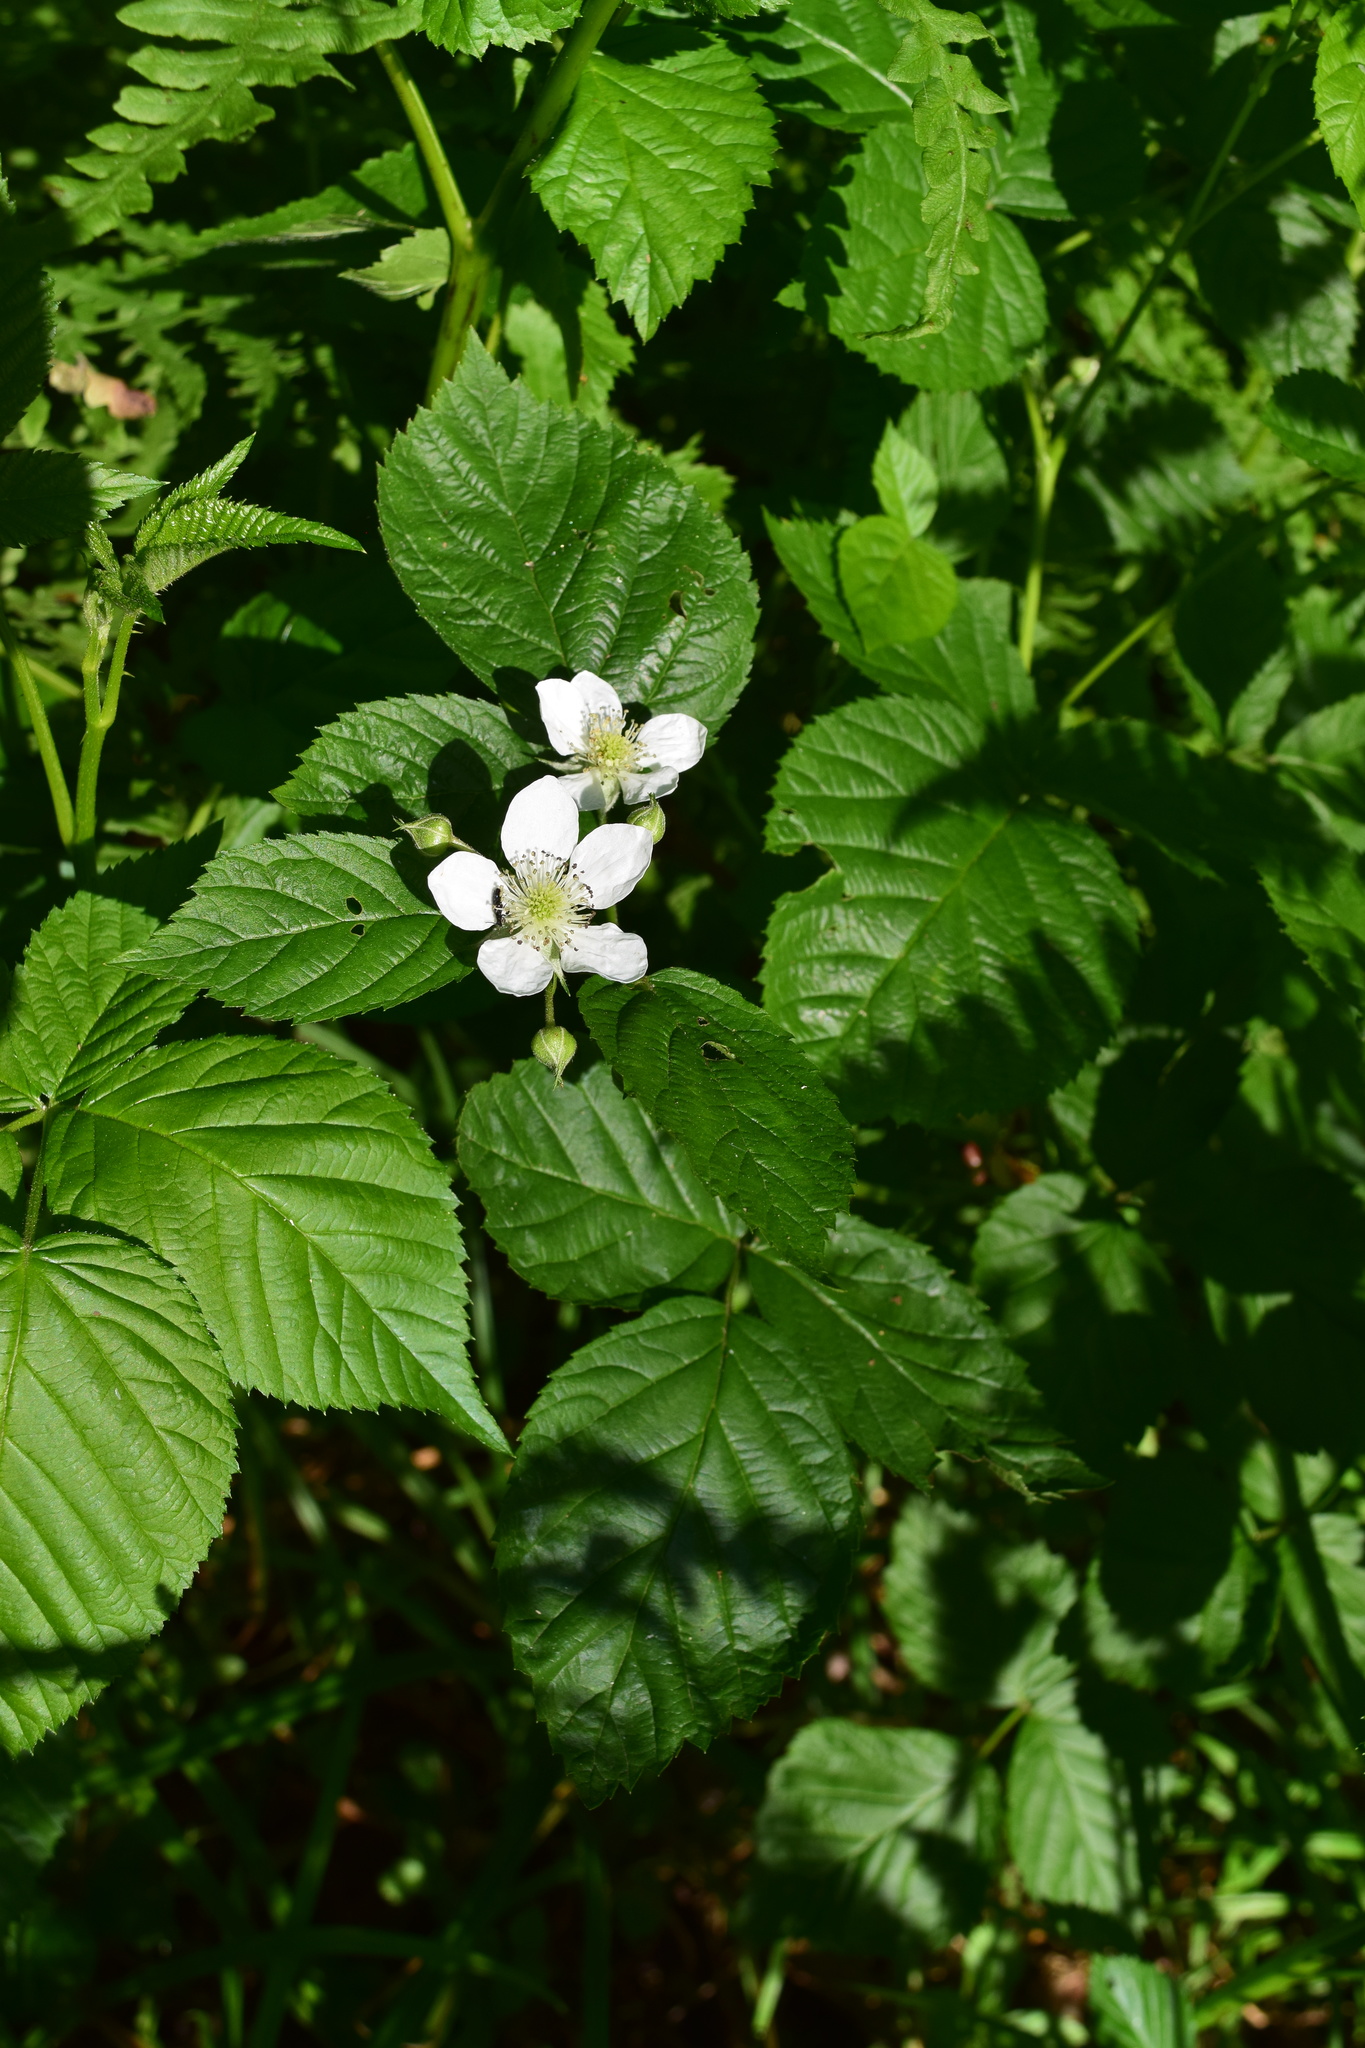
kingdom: Plantae
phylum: Tracheophyta
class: Magnoliopsida
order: Rosales
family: Rosaceae
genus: Rubus
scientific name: Rubus caesius
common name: Dewberry
